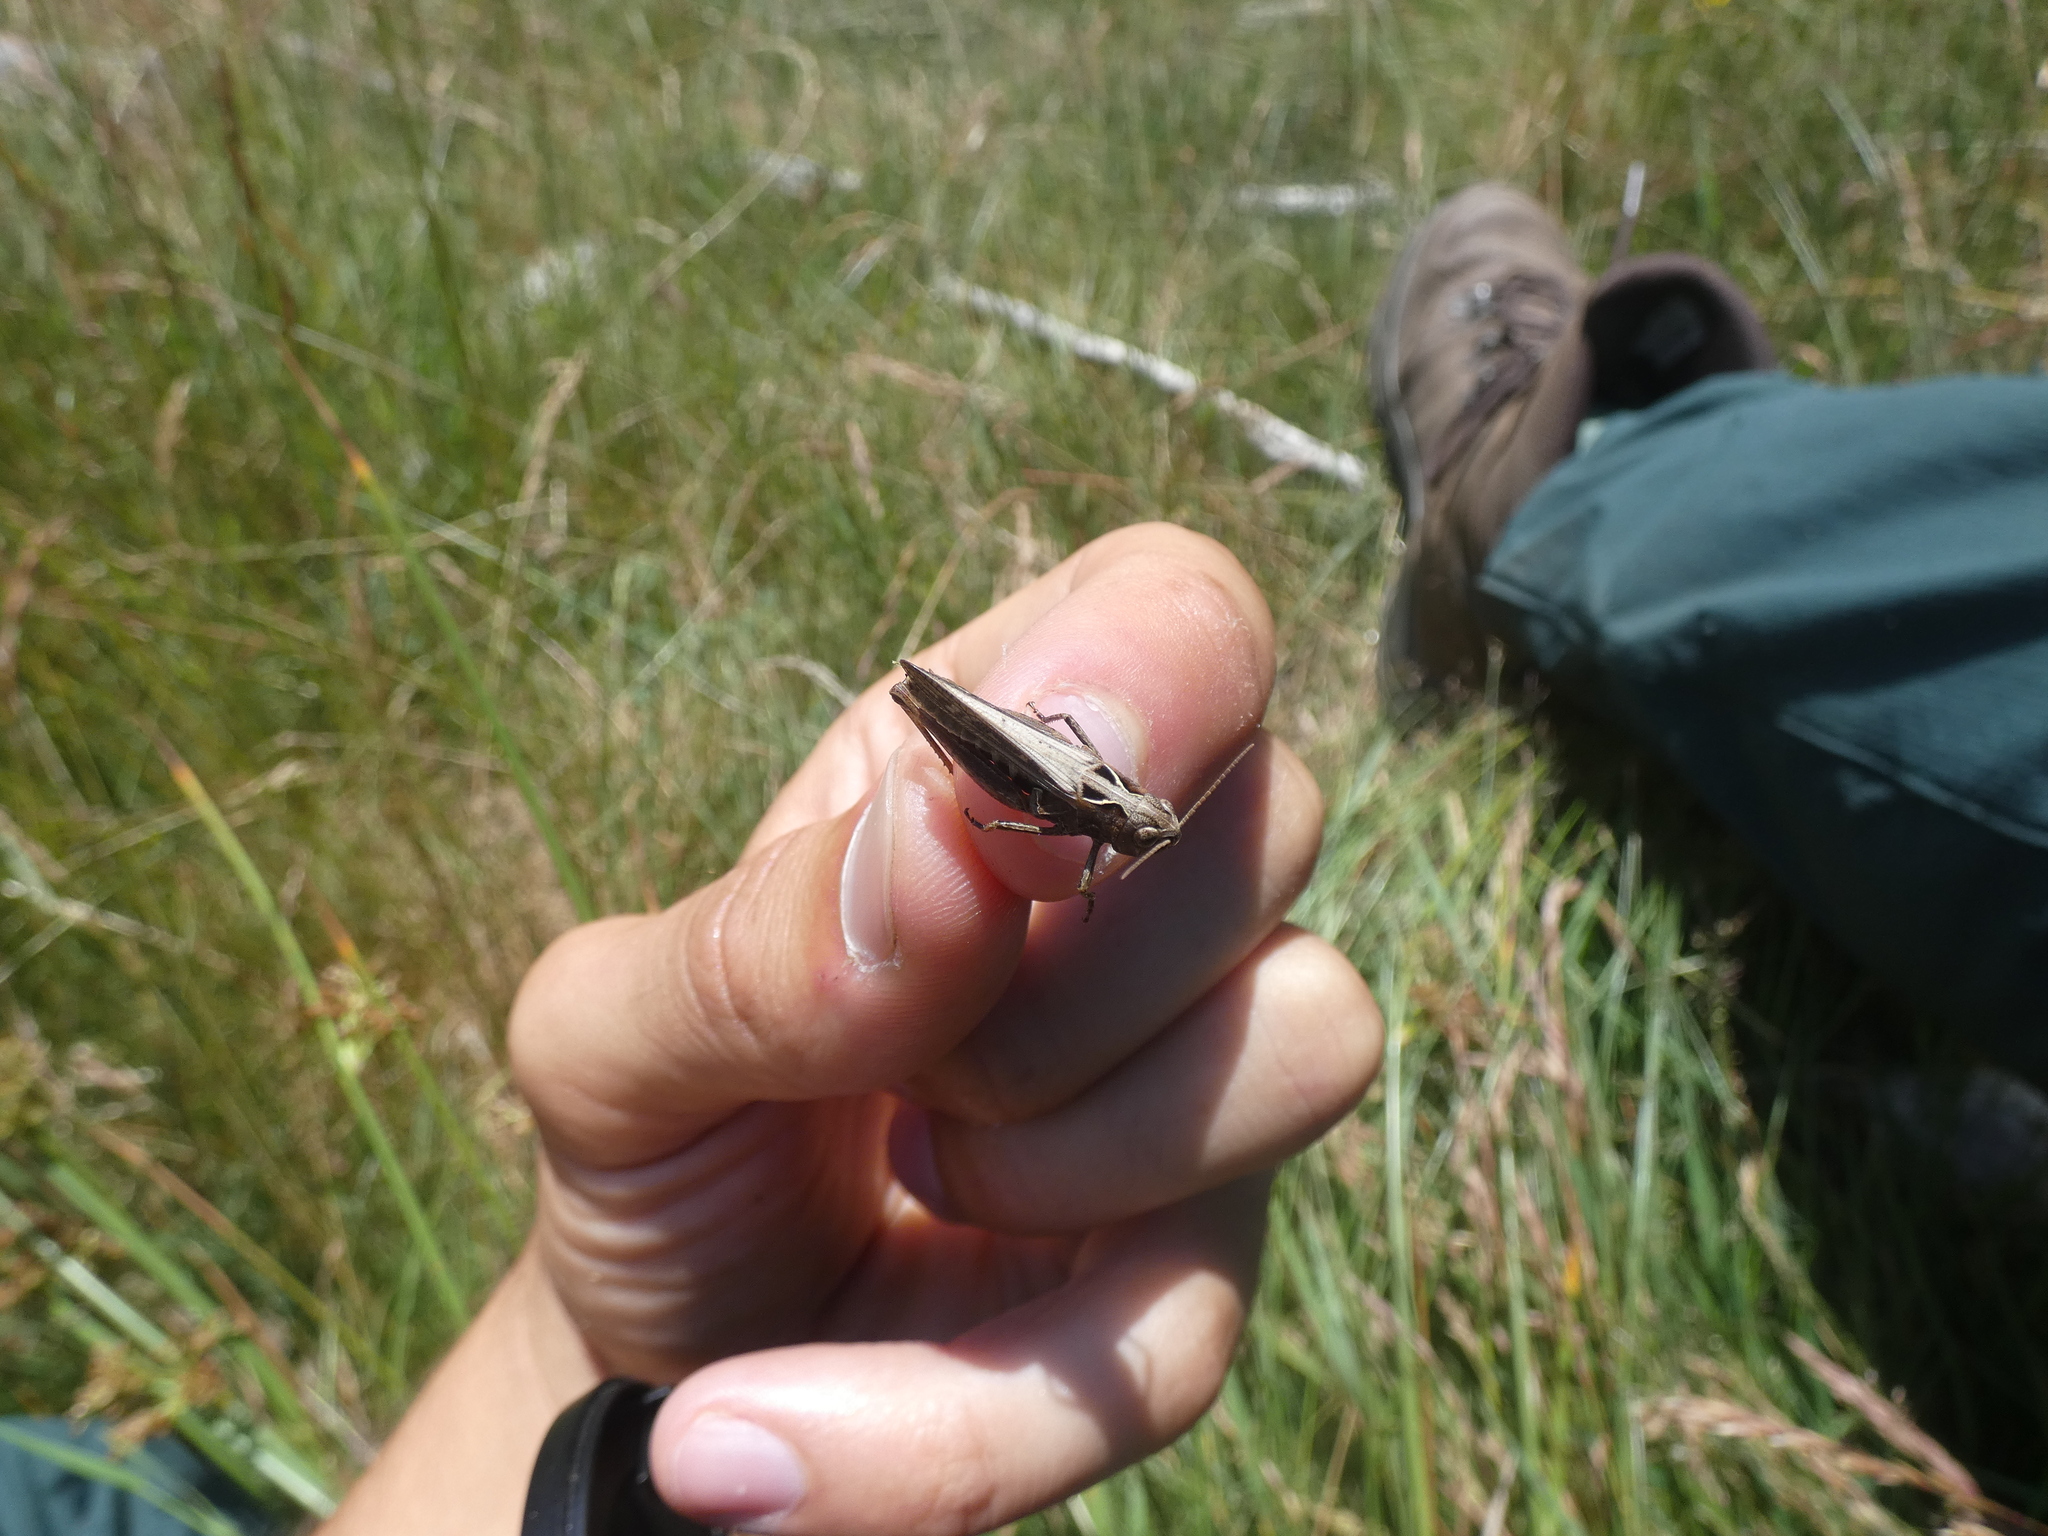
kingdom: Animalia
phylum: Arthropoda
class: Insecta
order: Orthoptera
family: Acrididae
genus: Omocestus
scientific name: Omocestus raymondi
